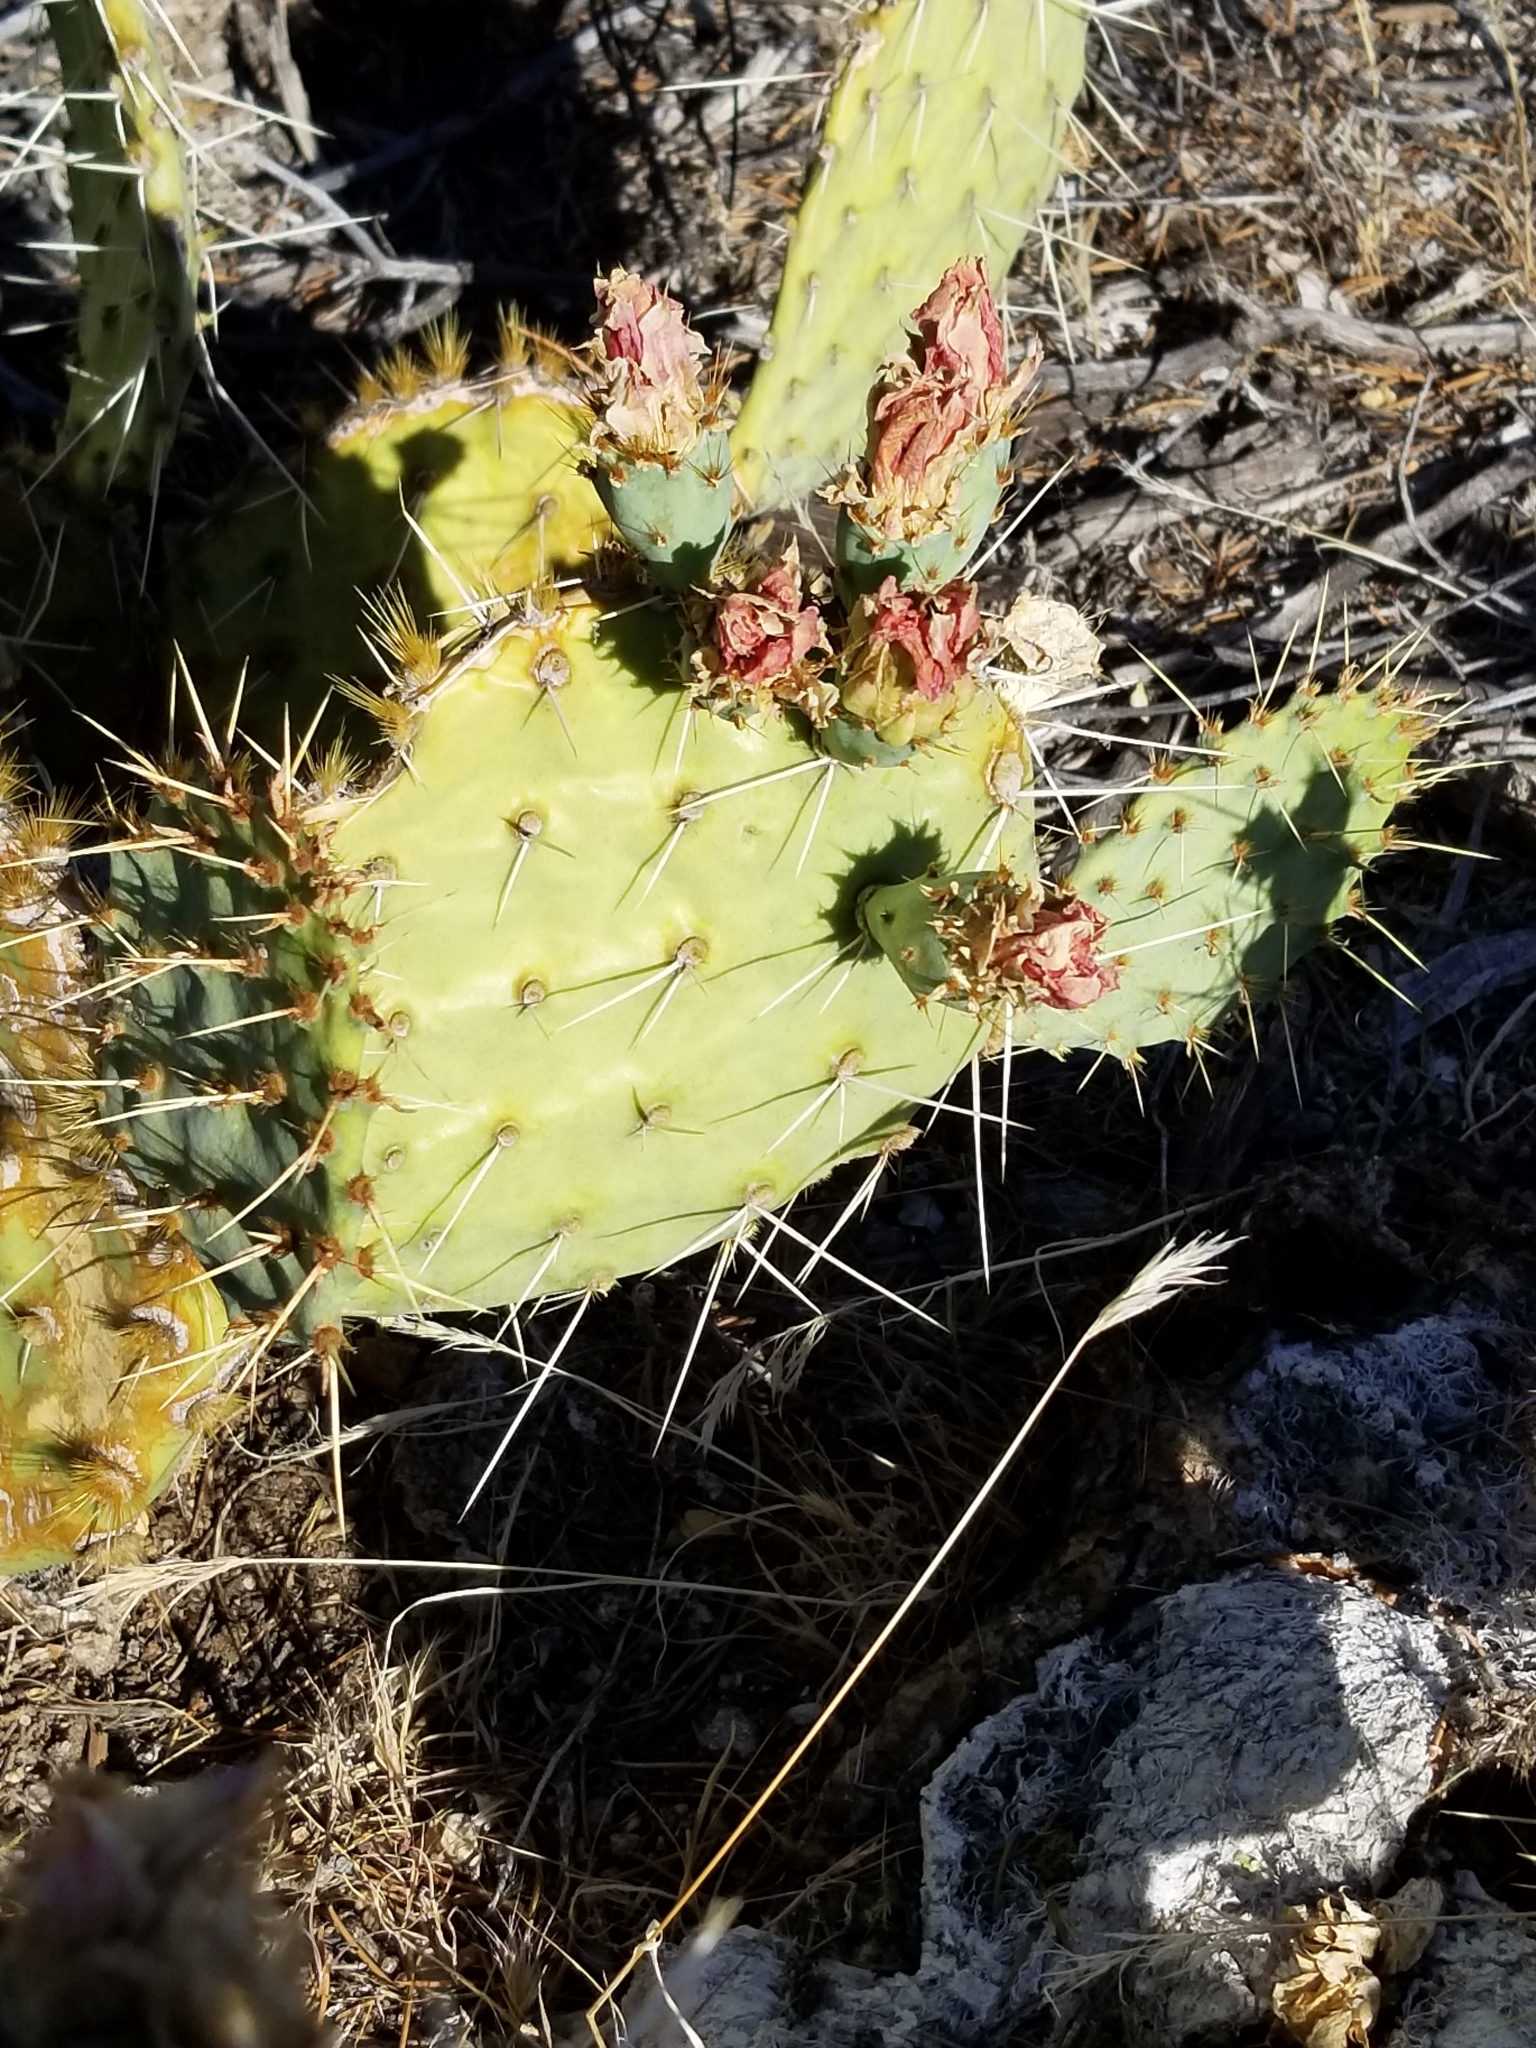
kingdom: Plantae
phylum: Tracheophyta
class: Magnoliopsida
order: Caryophyllales
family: Cactaceae
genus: Opuntia
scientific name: Opuntia phaeacantha
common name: New mexico prickly-pear
